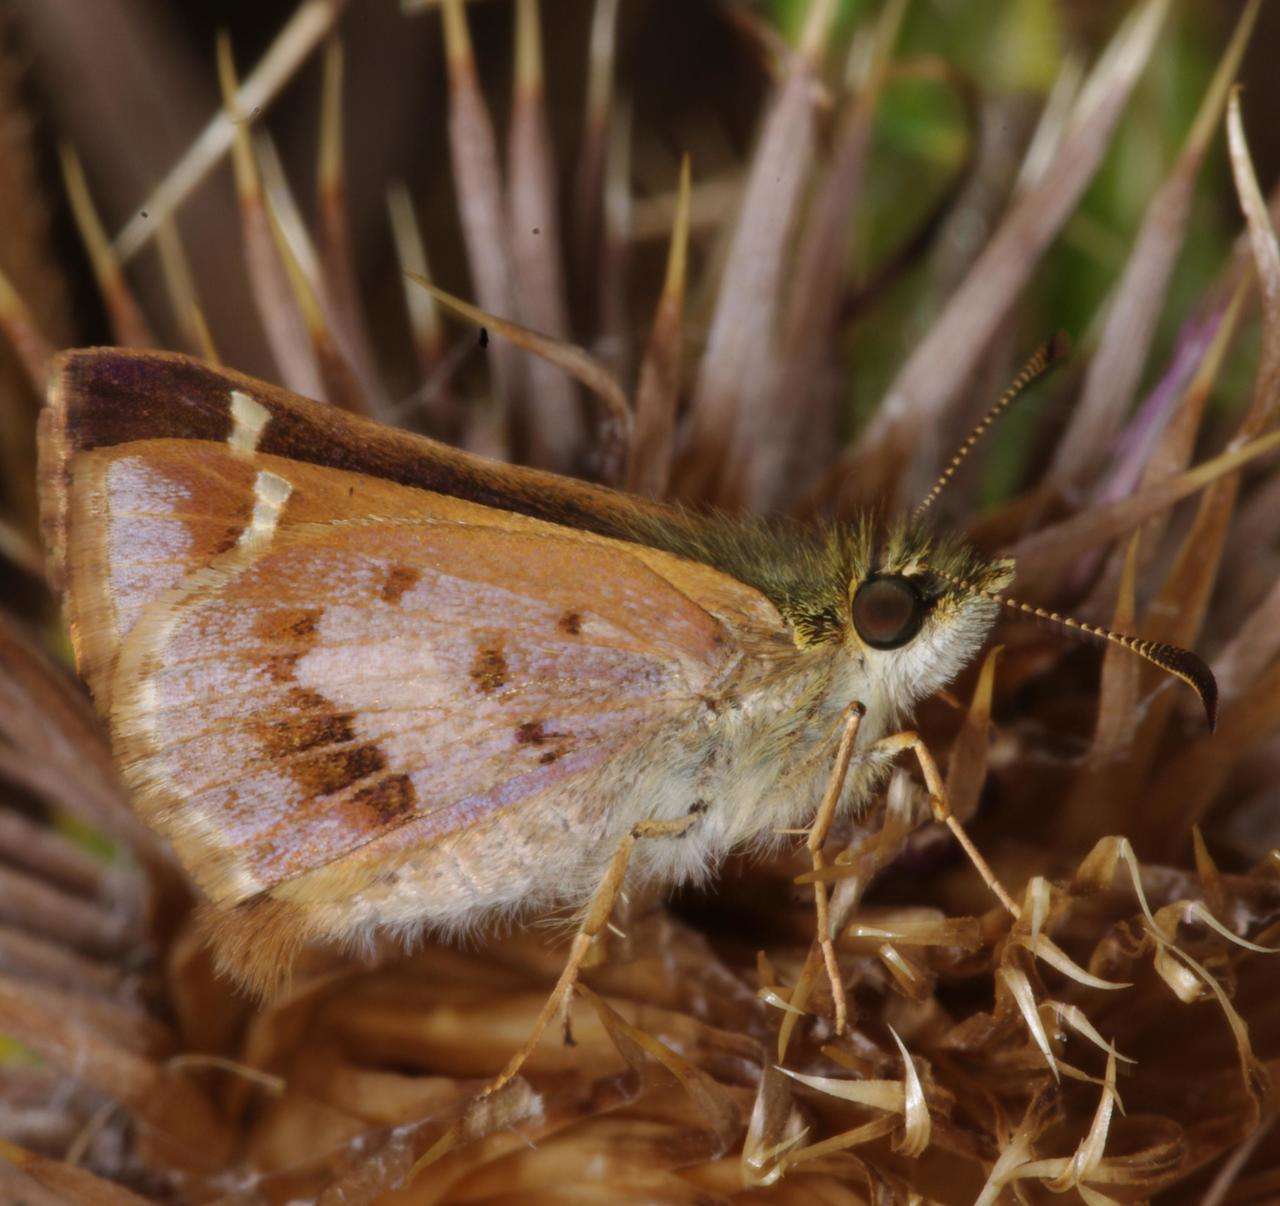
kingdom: Animalia
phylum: Arthropoda
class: Insecta
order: Lepidoptera
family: Hesperiidae
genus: Dispar
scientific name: Dispar compacta
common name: Barred skipper
